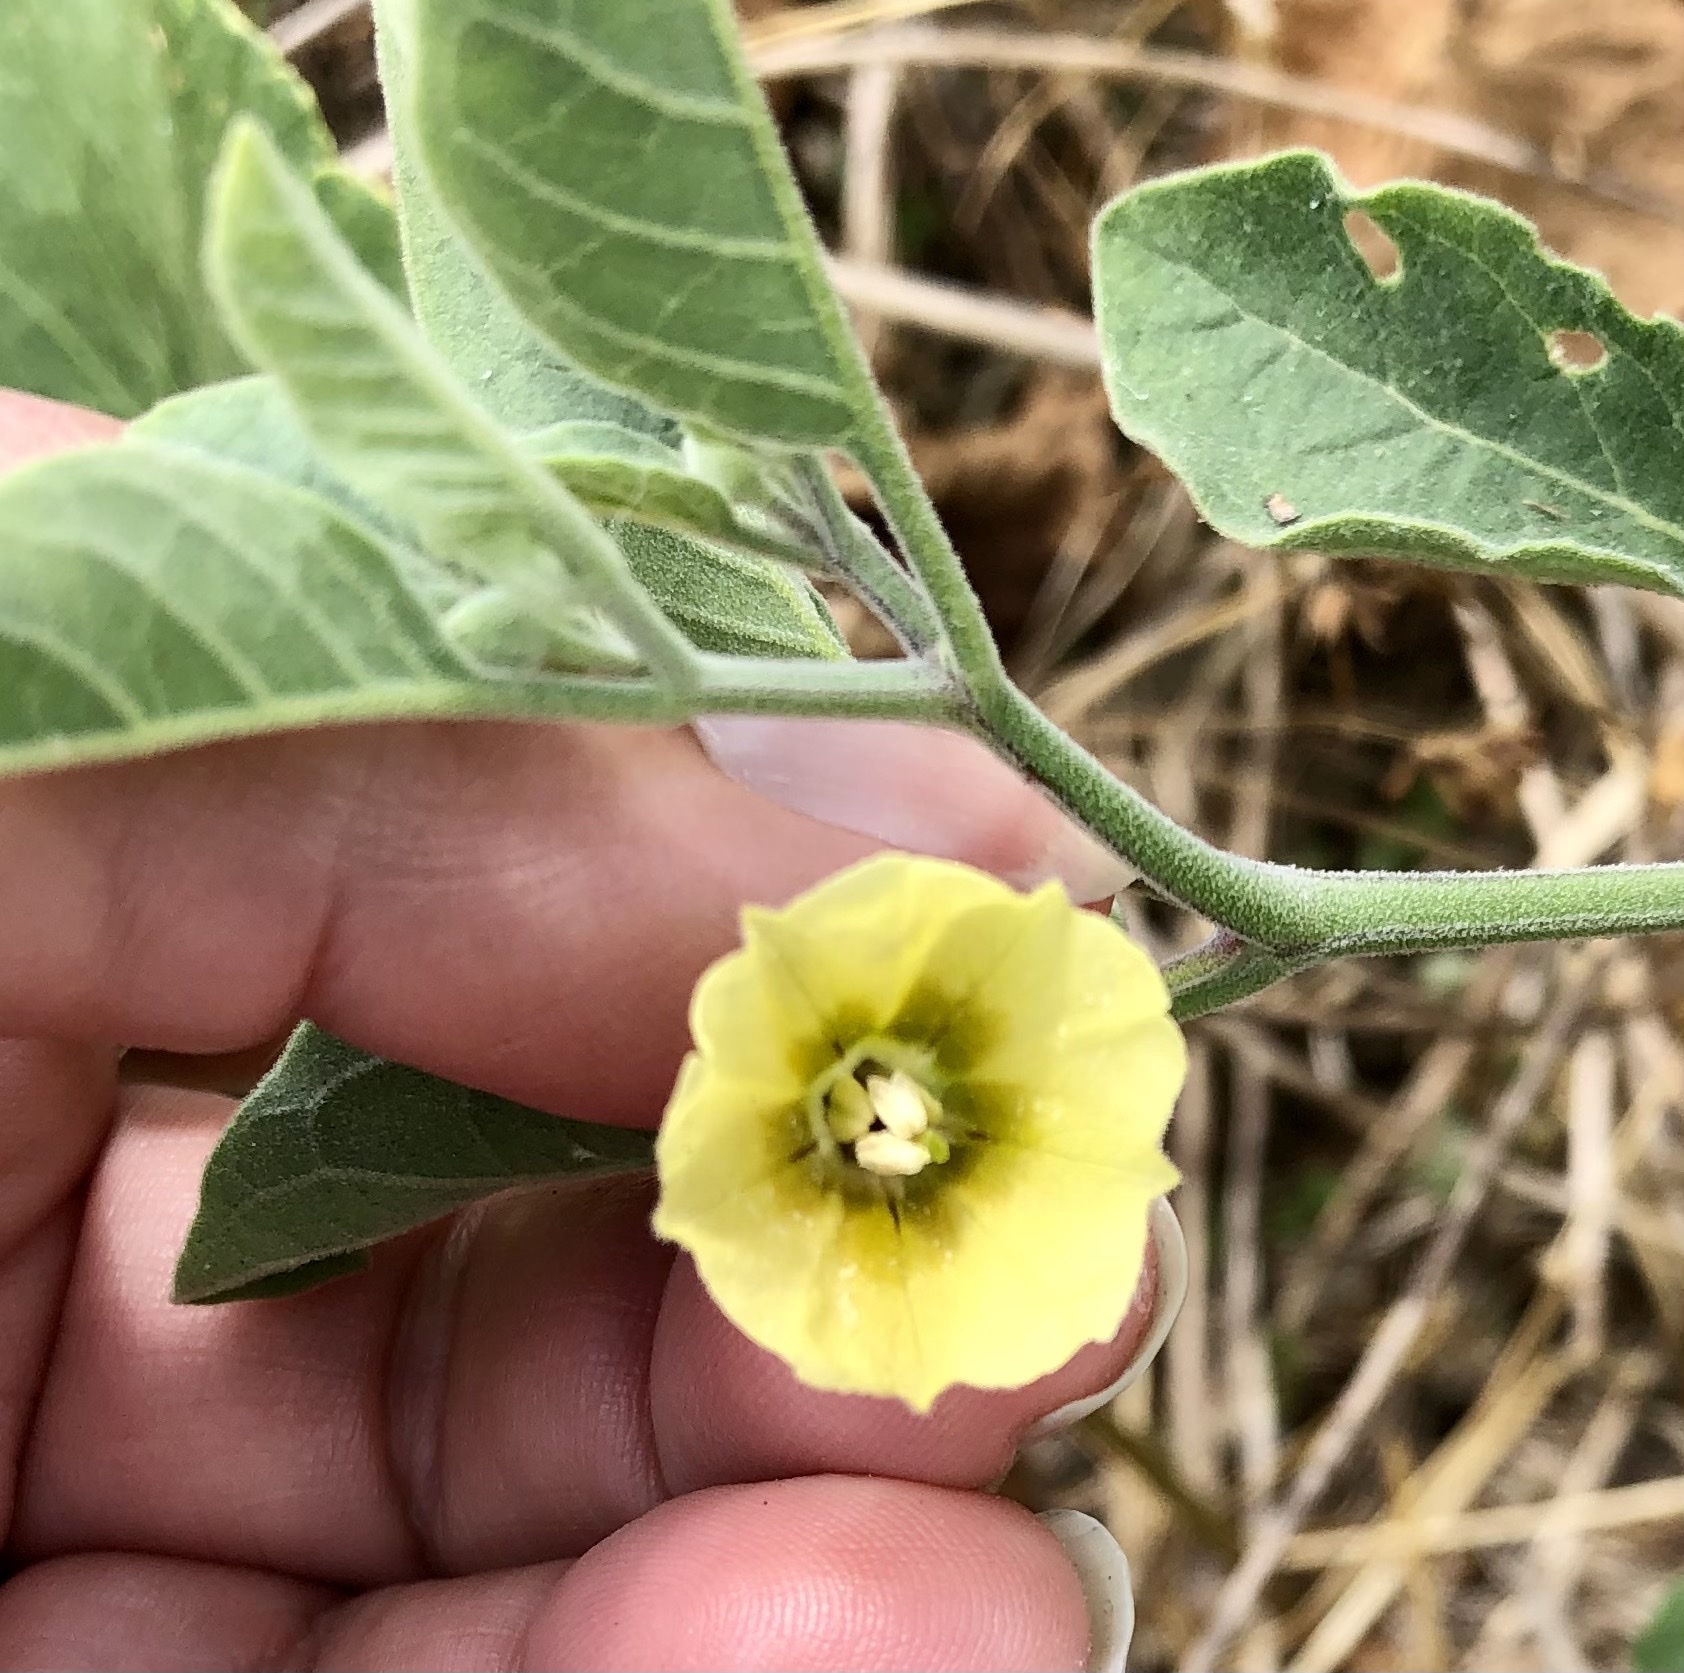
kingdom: Plantae
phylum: Tracheophyta
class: Magnoliopsida
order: Solanales
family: Solanaceae
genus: Physalis
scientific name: Physalis walteri
